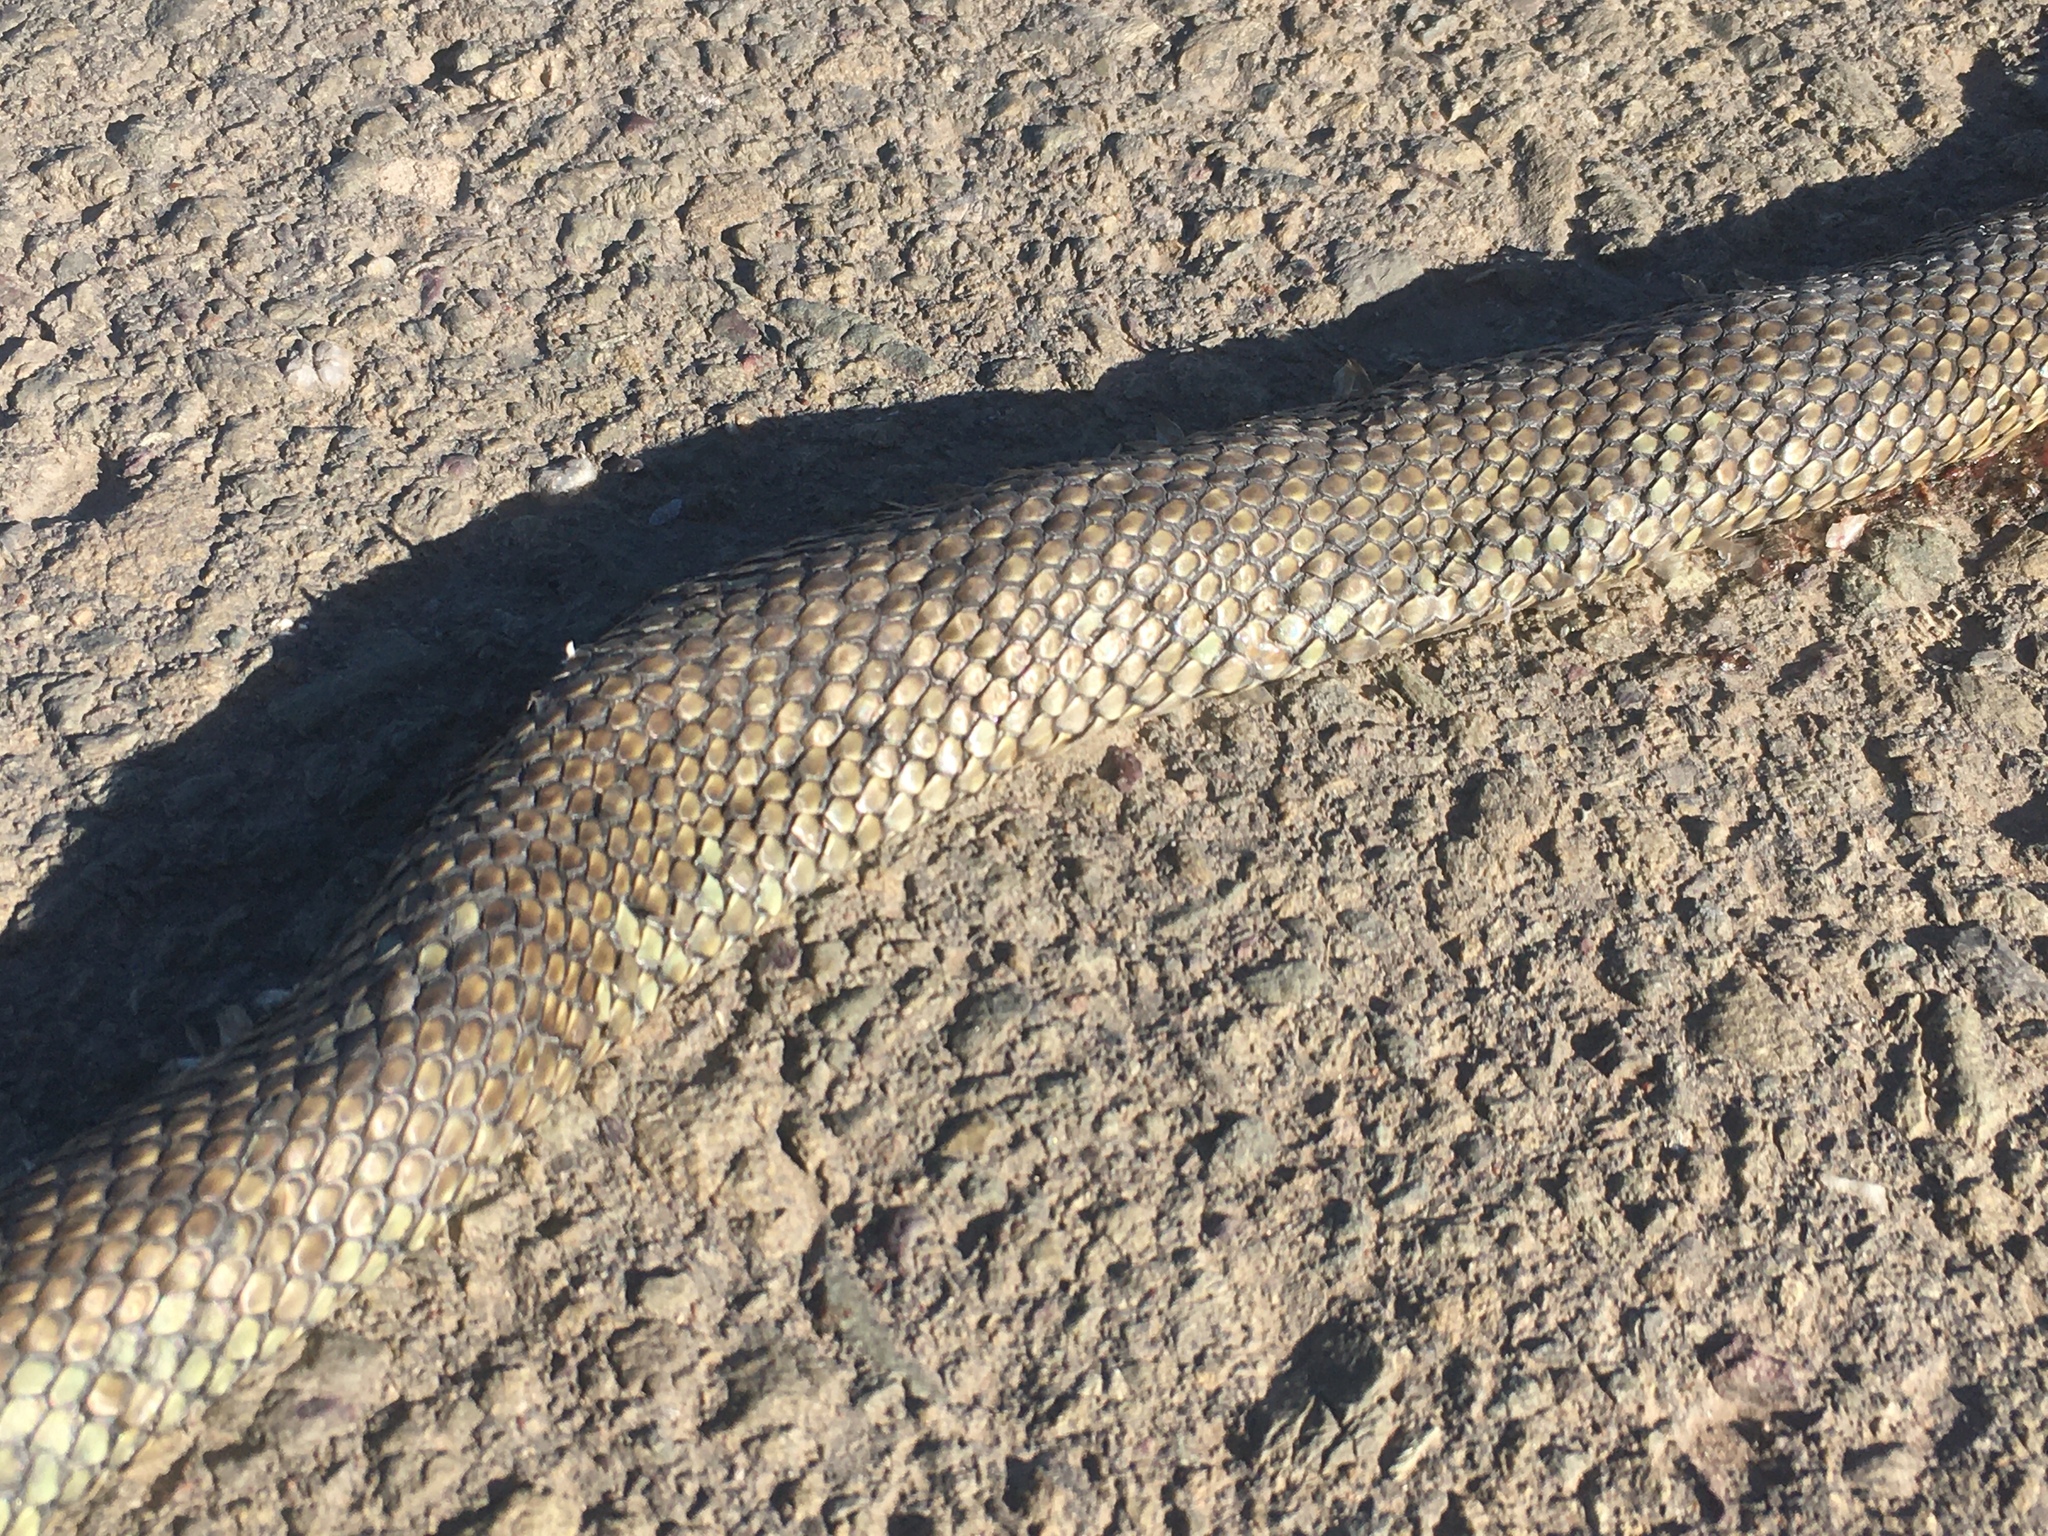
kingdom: Animalia
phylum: Chordata
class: Squamata
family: Colubridae
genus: Philodryas
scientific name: Philodryas patagoniensis
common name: Patagonia green racer
